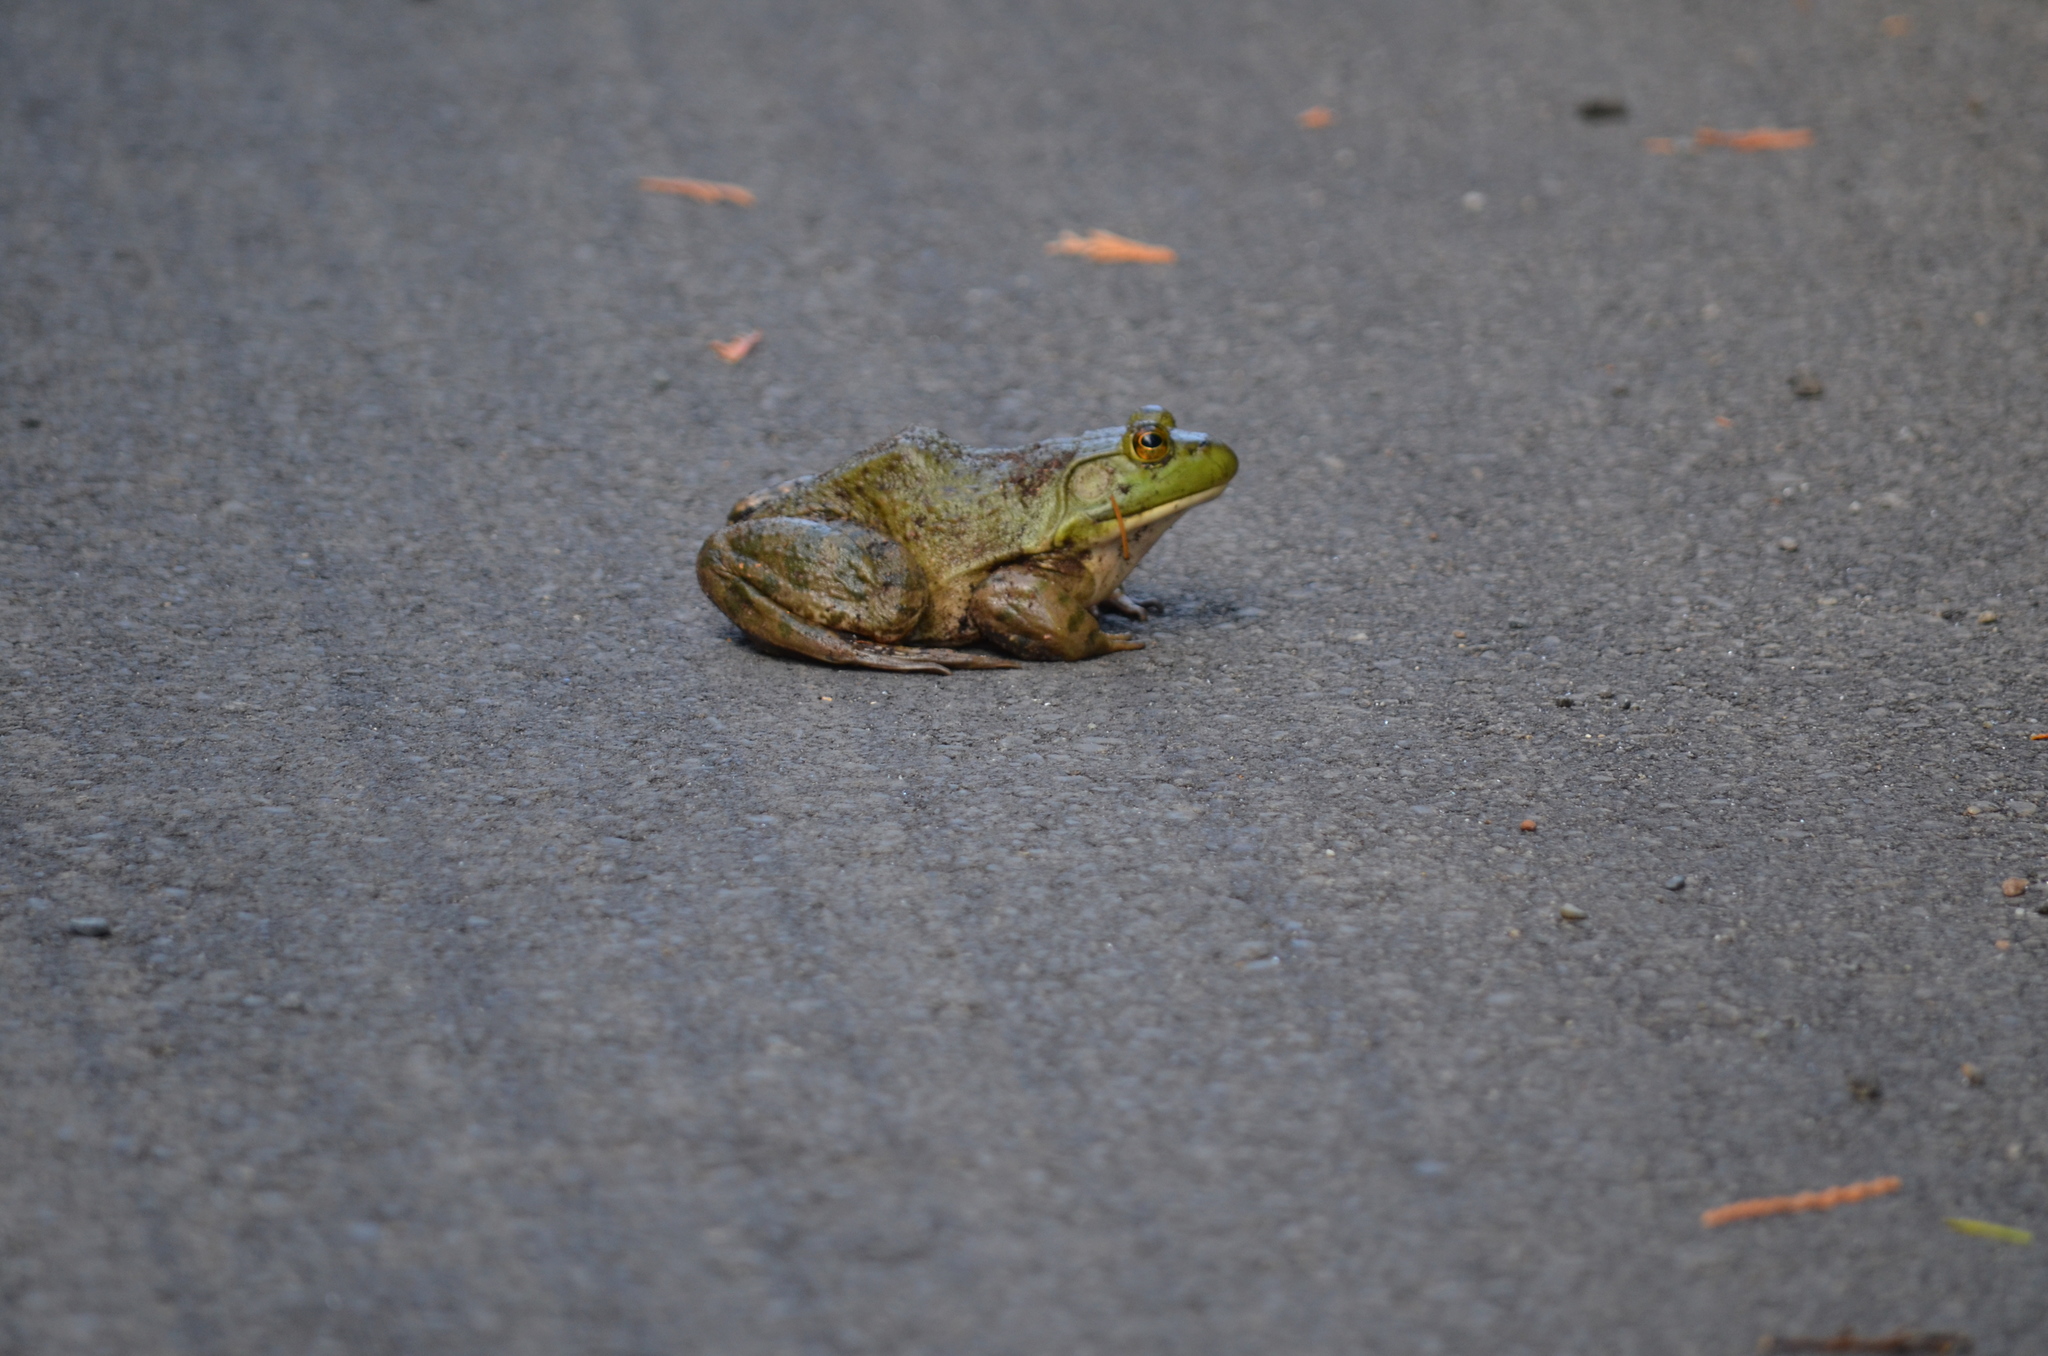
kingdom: Animalia
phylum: Chordata
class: Amphibia
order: Anura
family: Ranidae
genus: Lithobates
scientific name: Lithobates catesbeianus
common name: American bullfrog
